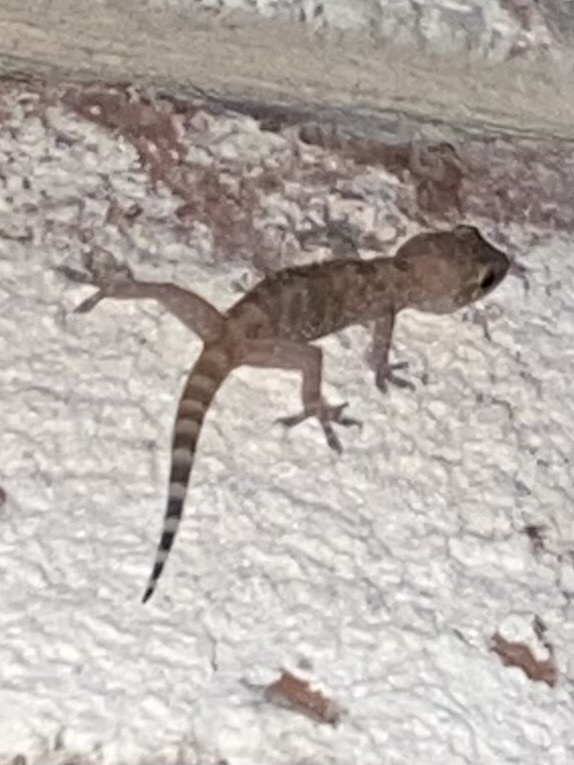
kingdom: Animalia
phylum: Chordata
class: Squamata
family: Gekkonidae
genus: Hemidactylus
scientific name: Hemidactylus turcicus
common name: Turkish gecko
